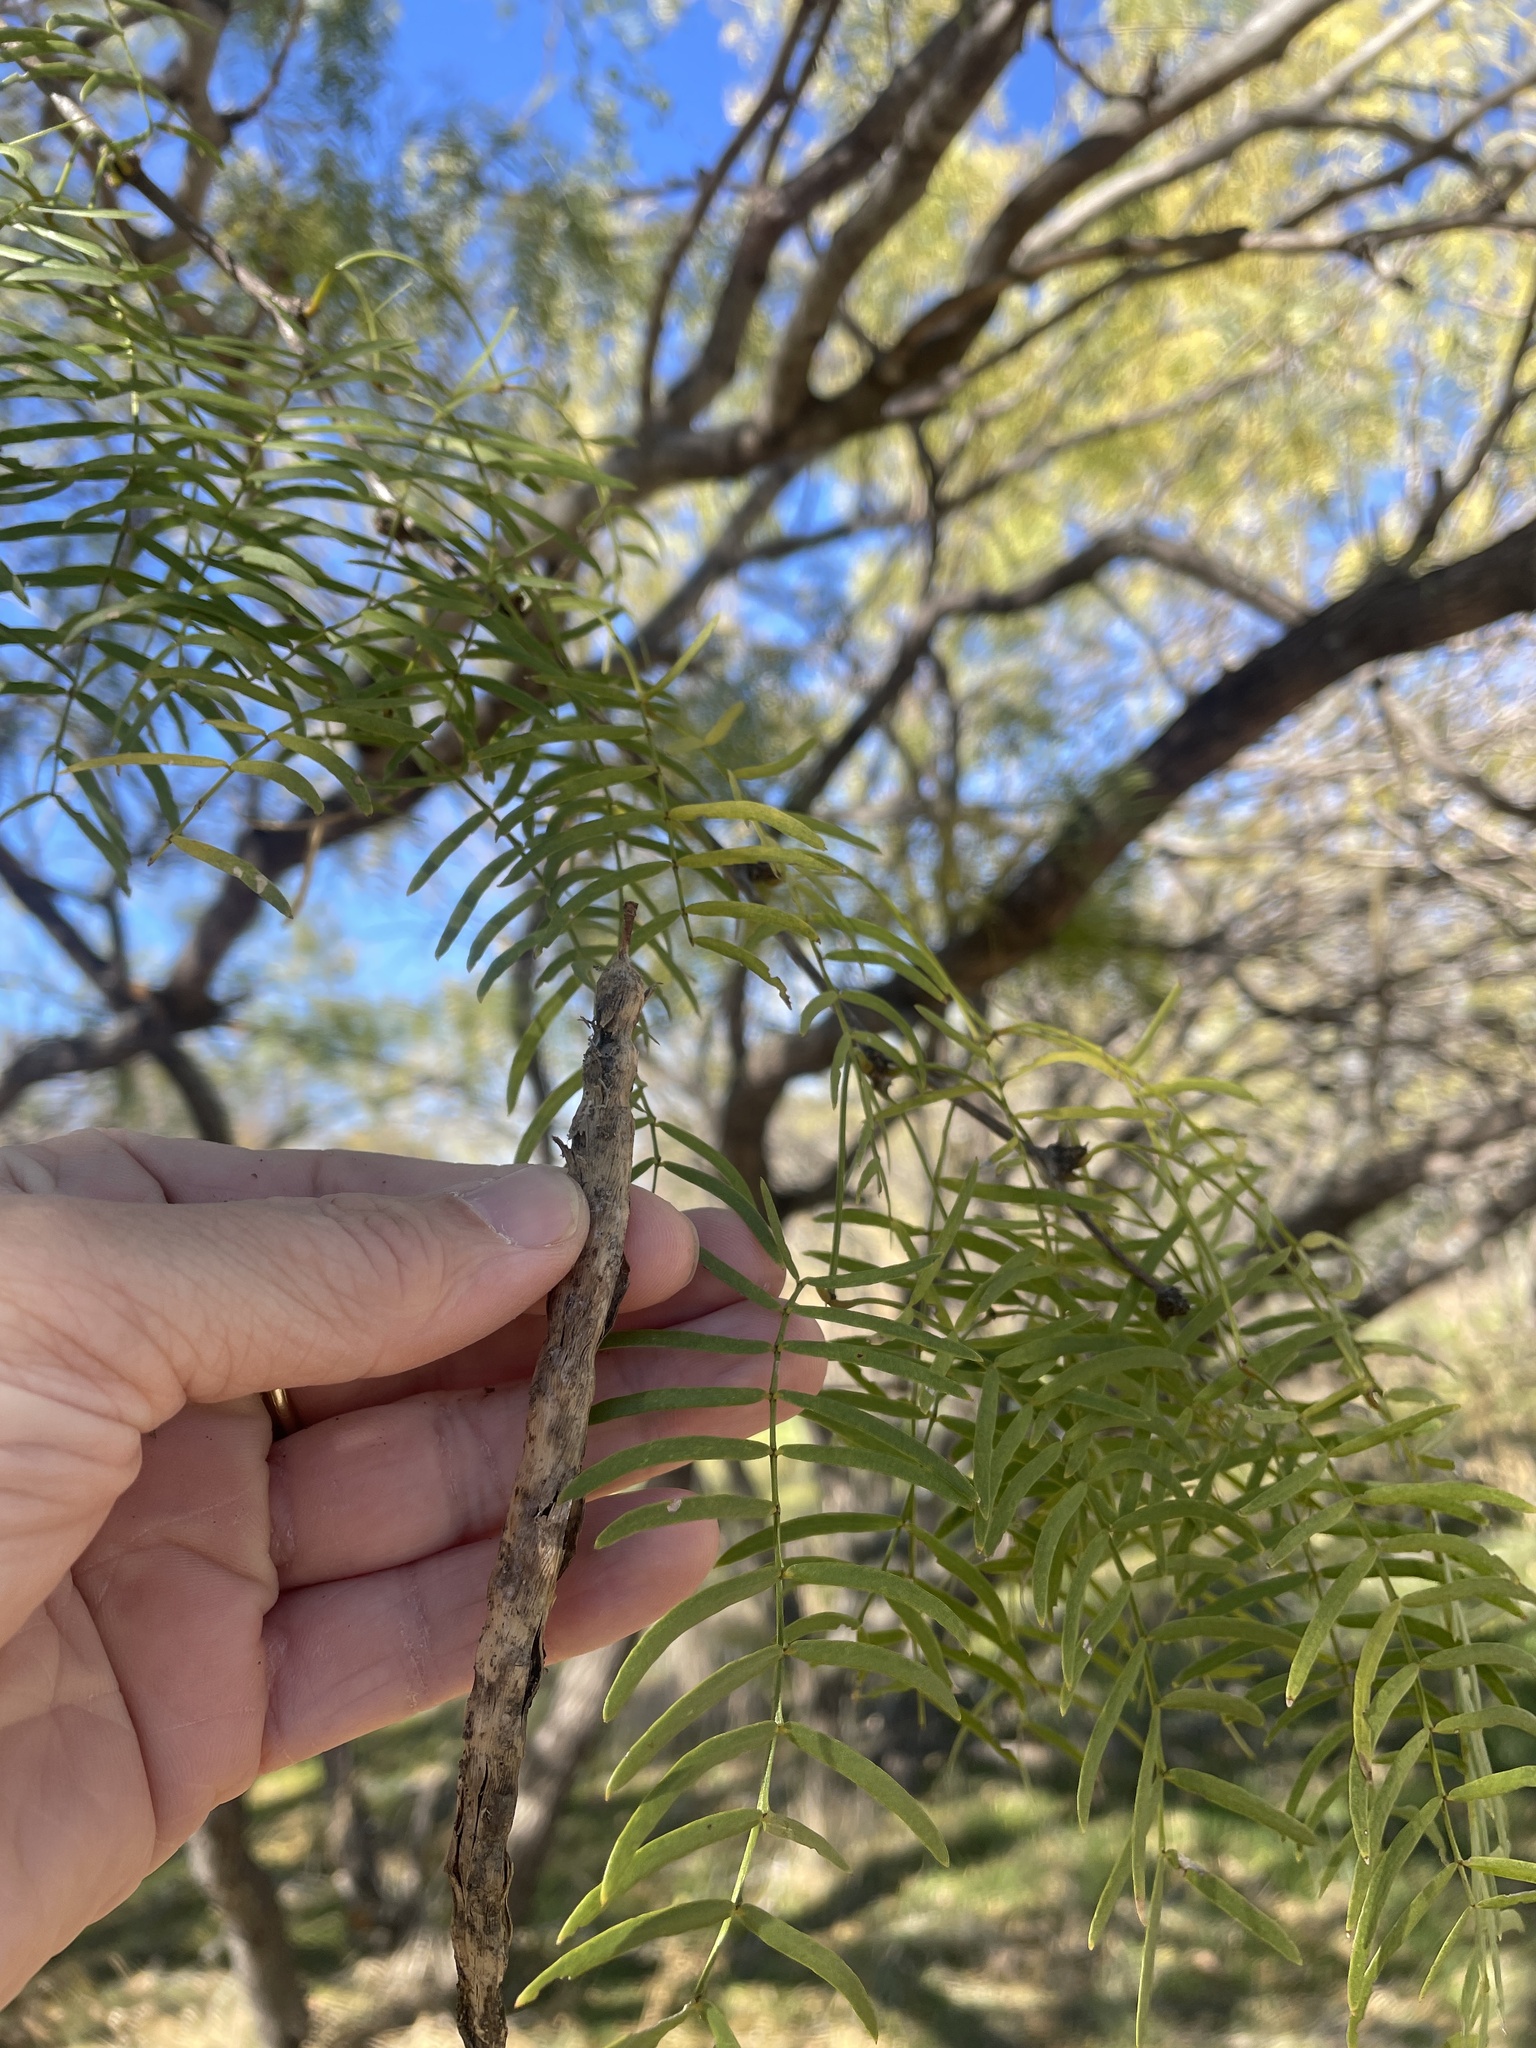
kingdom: Plantae
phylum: Tracheophyta
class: Magnoliopsida
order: Fabales
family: Fabaceae
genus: Prosopis
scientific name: Prosopis glandulosa
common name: Honey mesquite
